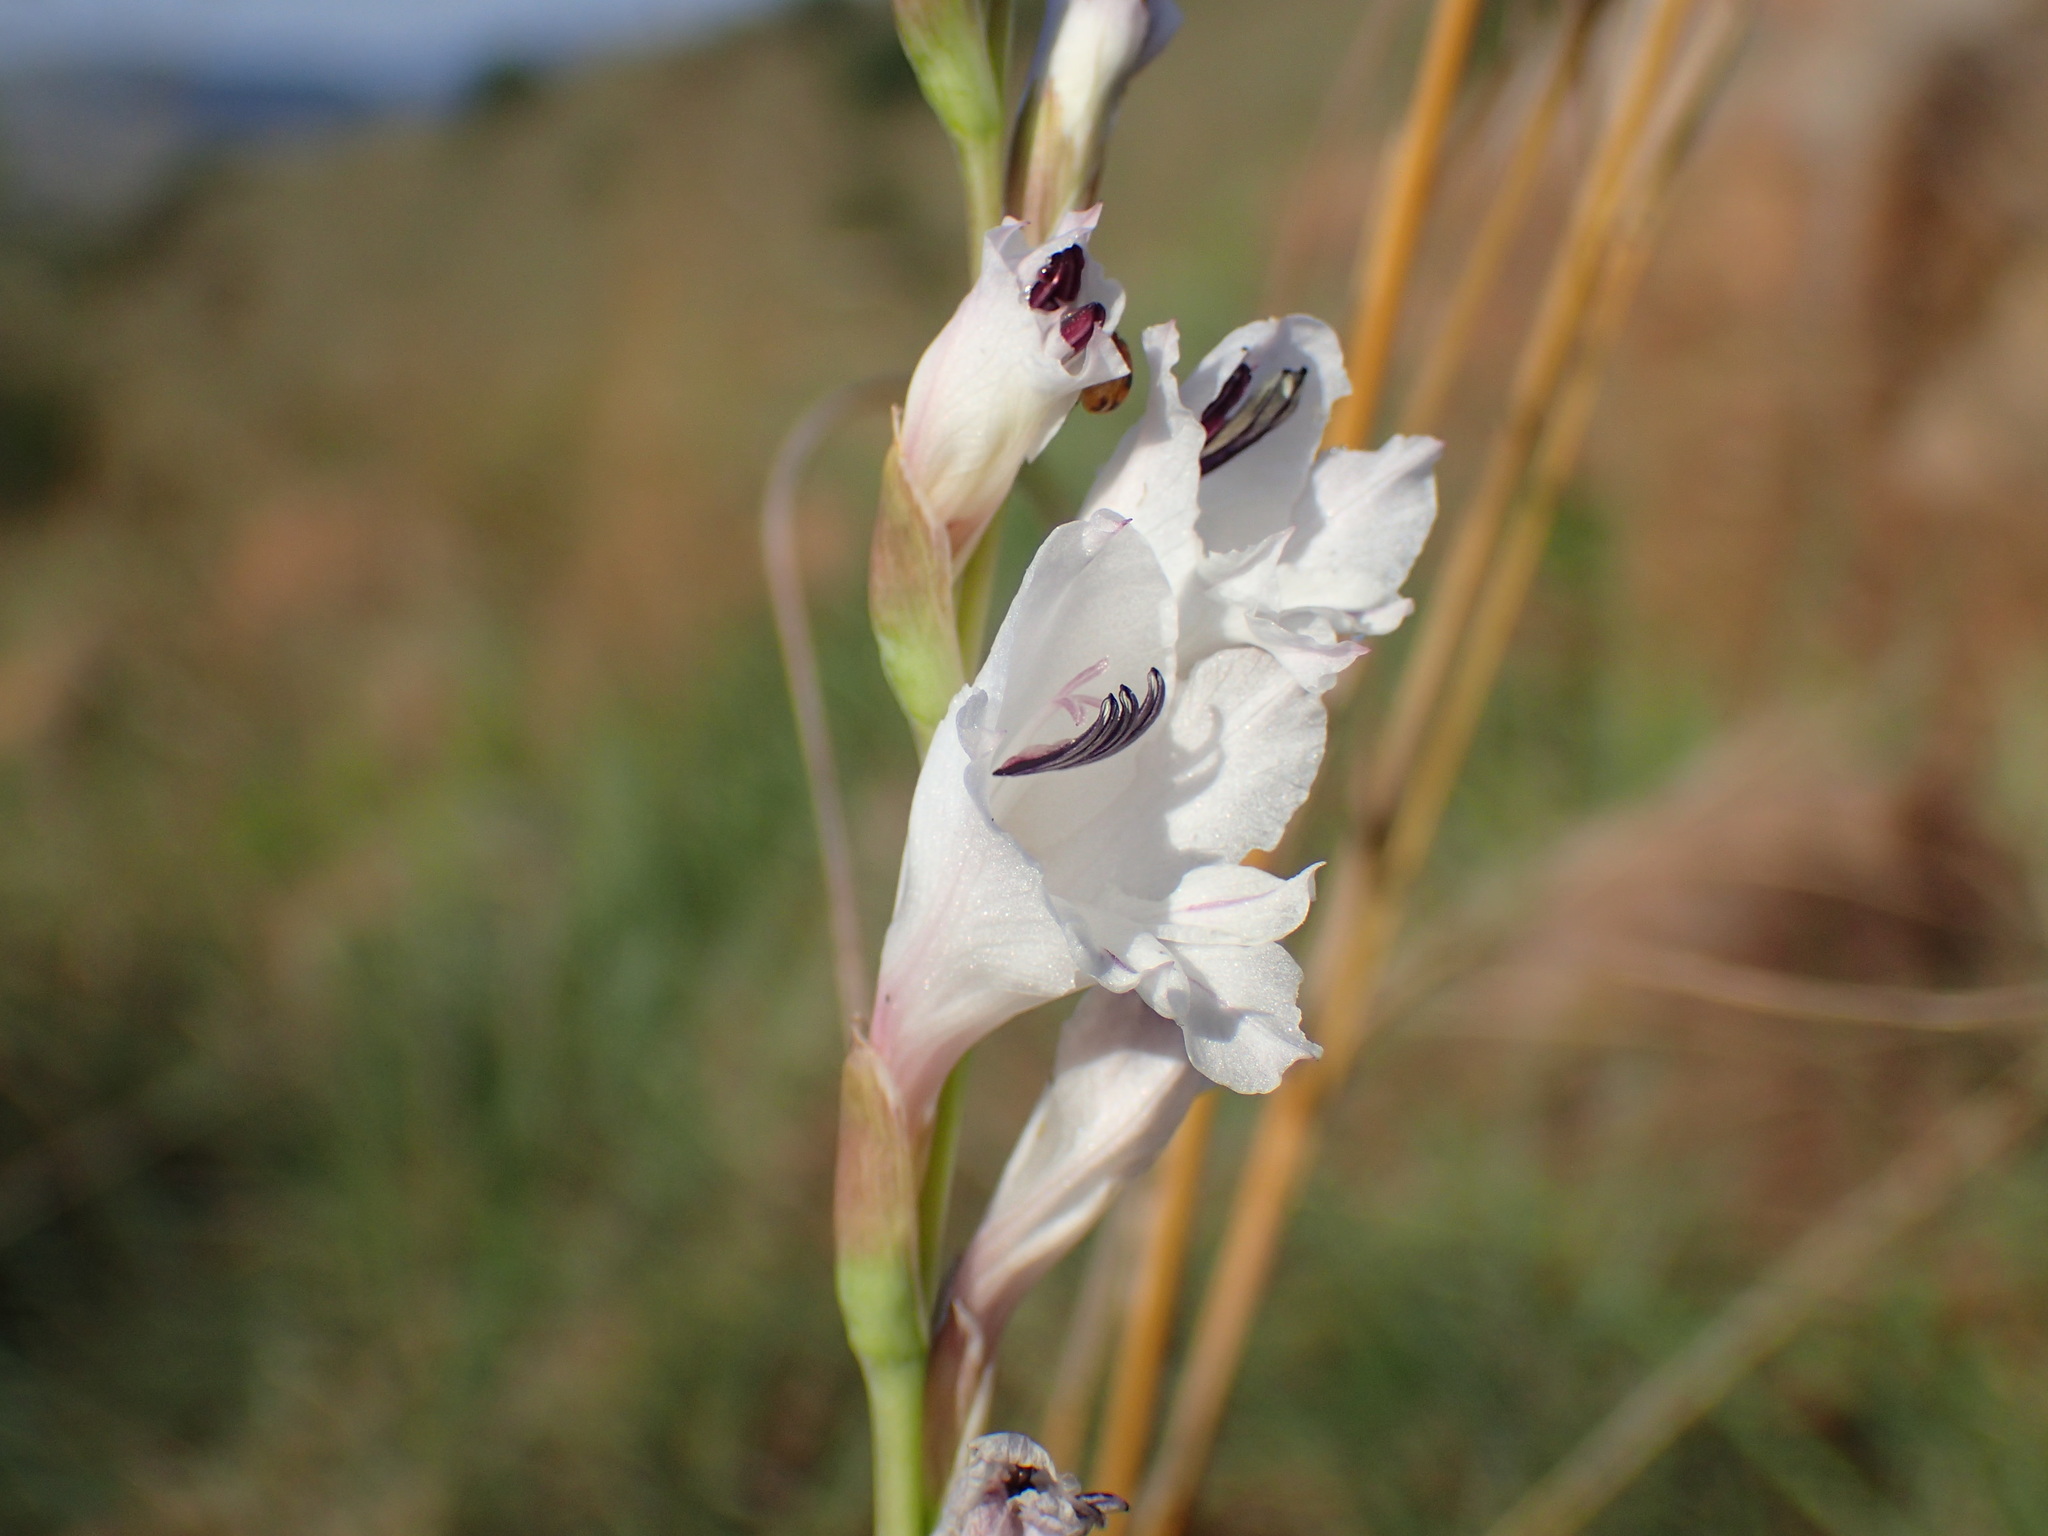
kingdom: Plantae
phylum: Tracheophyta
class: Liliopsida
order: Asparagales
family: Iridaceae
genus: Gladiolus
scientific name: Gladiolus woodii
